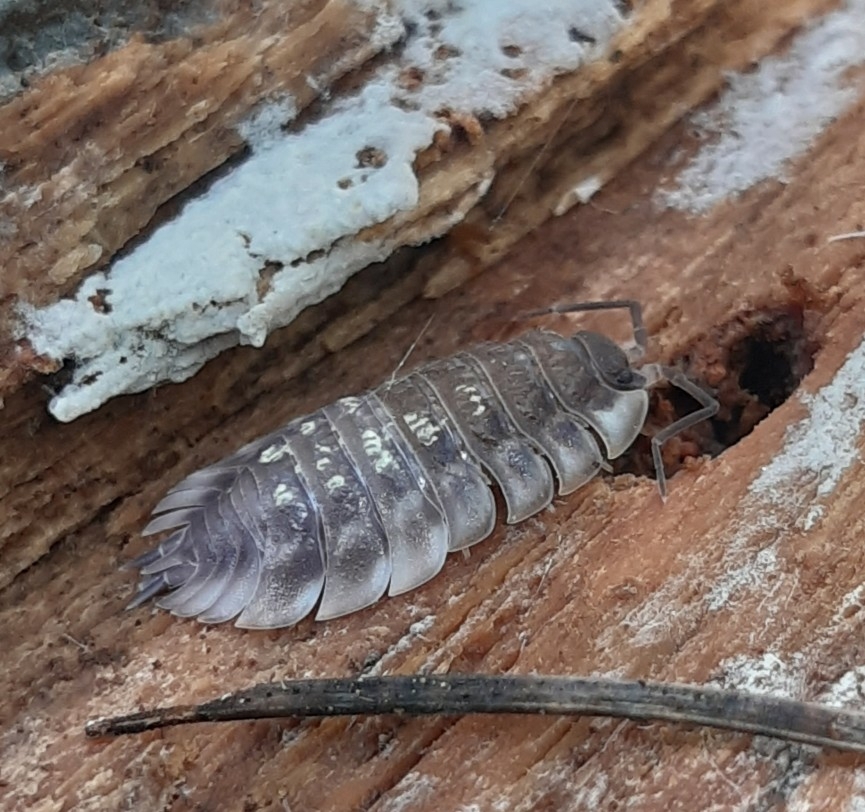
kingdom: Animalia
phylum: Arthropoda
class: Malacostraca
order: Isopoda
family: Oniscidae
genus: Oniscus
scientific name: Oniscus asellus
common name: Common shiny woodlouse
